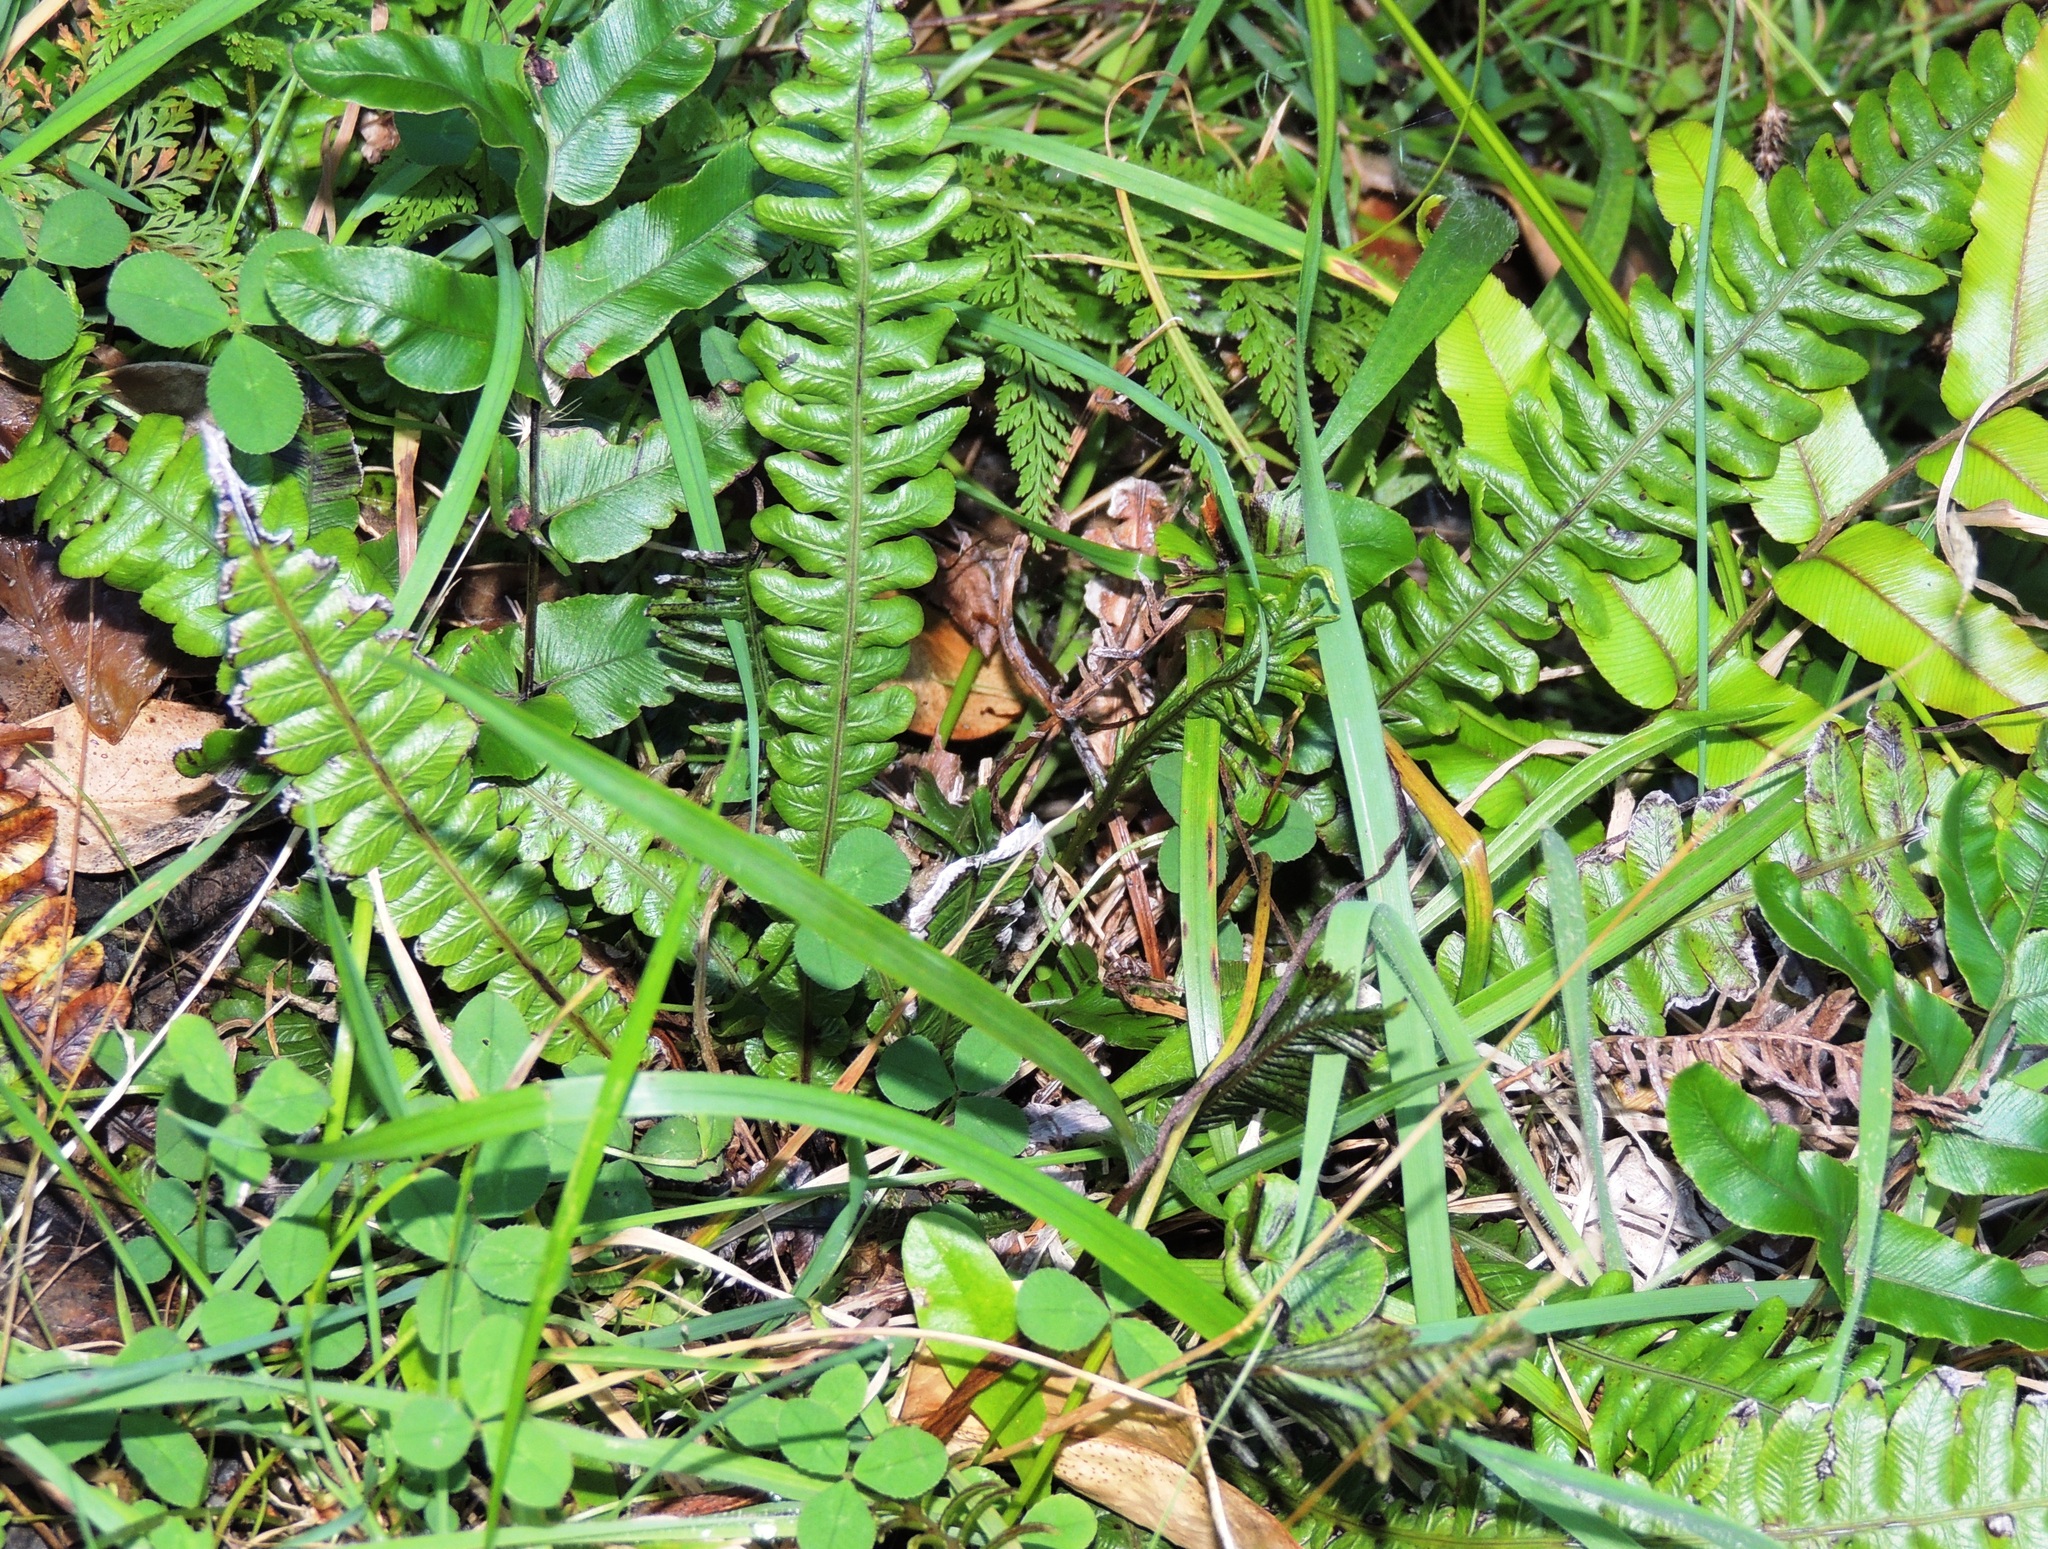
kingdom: Plantae
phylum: Tracheophyta
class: Polypodiopsida
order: Polypodiales
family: Blechnaceae
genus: Austroblechnum
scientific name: Austroblechnum lanceolatum
